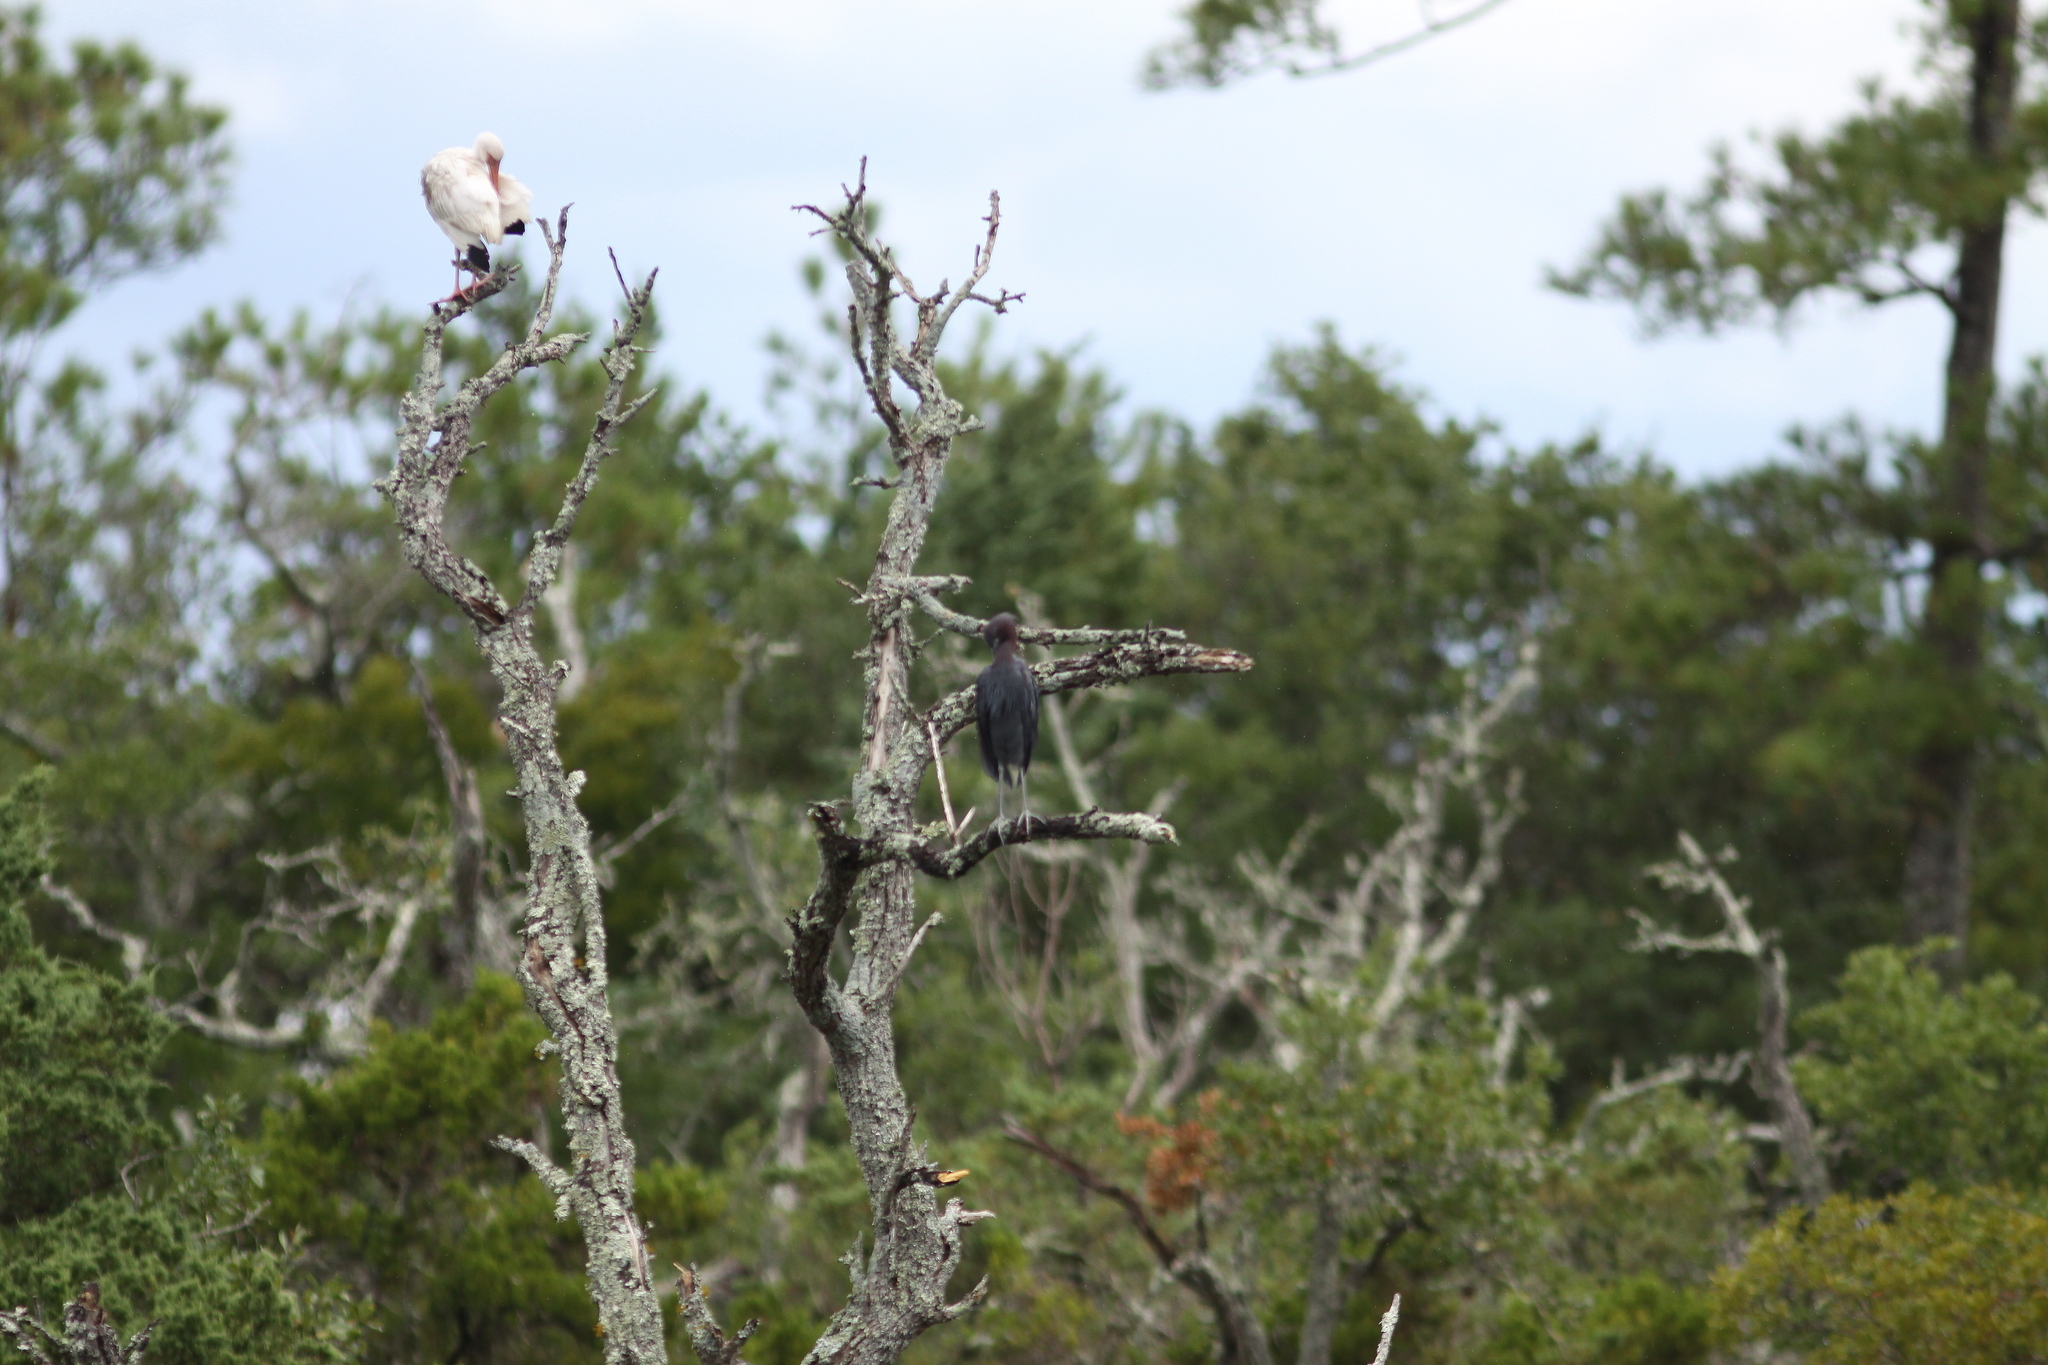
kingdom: Animalia
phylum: Chordata
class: Aves
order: Pelecaniformes
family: Ardeidae
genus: Egretta
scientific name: Egretta caerulea
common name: Little blue heron
